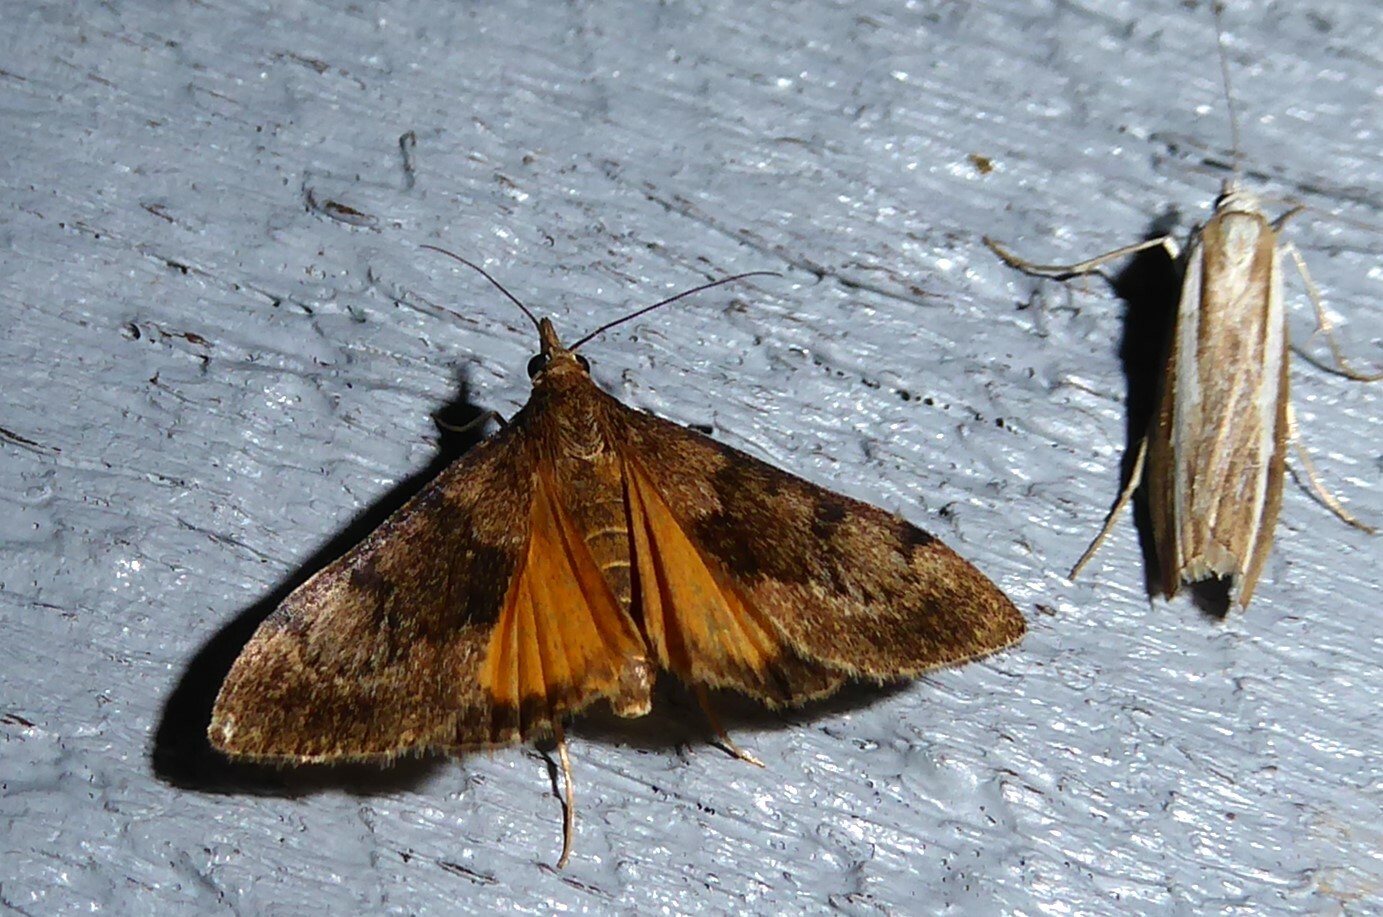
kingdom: Animalia
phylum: Arthropoda
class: Insecta
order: Lepidoptera
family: Crambidae
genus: Uresiphita
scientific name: Uresiphita
